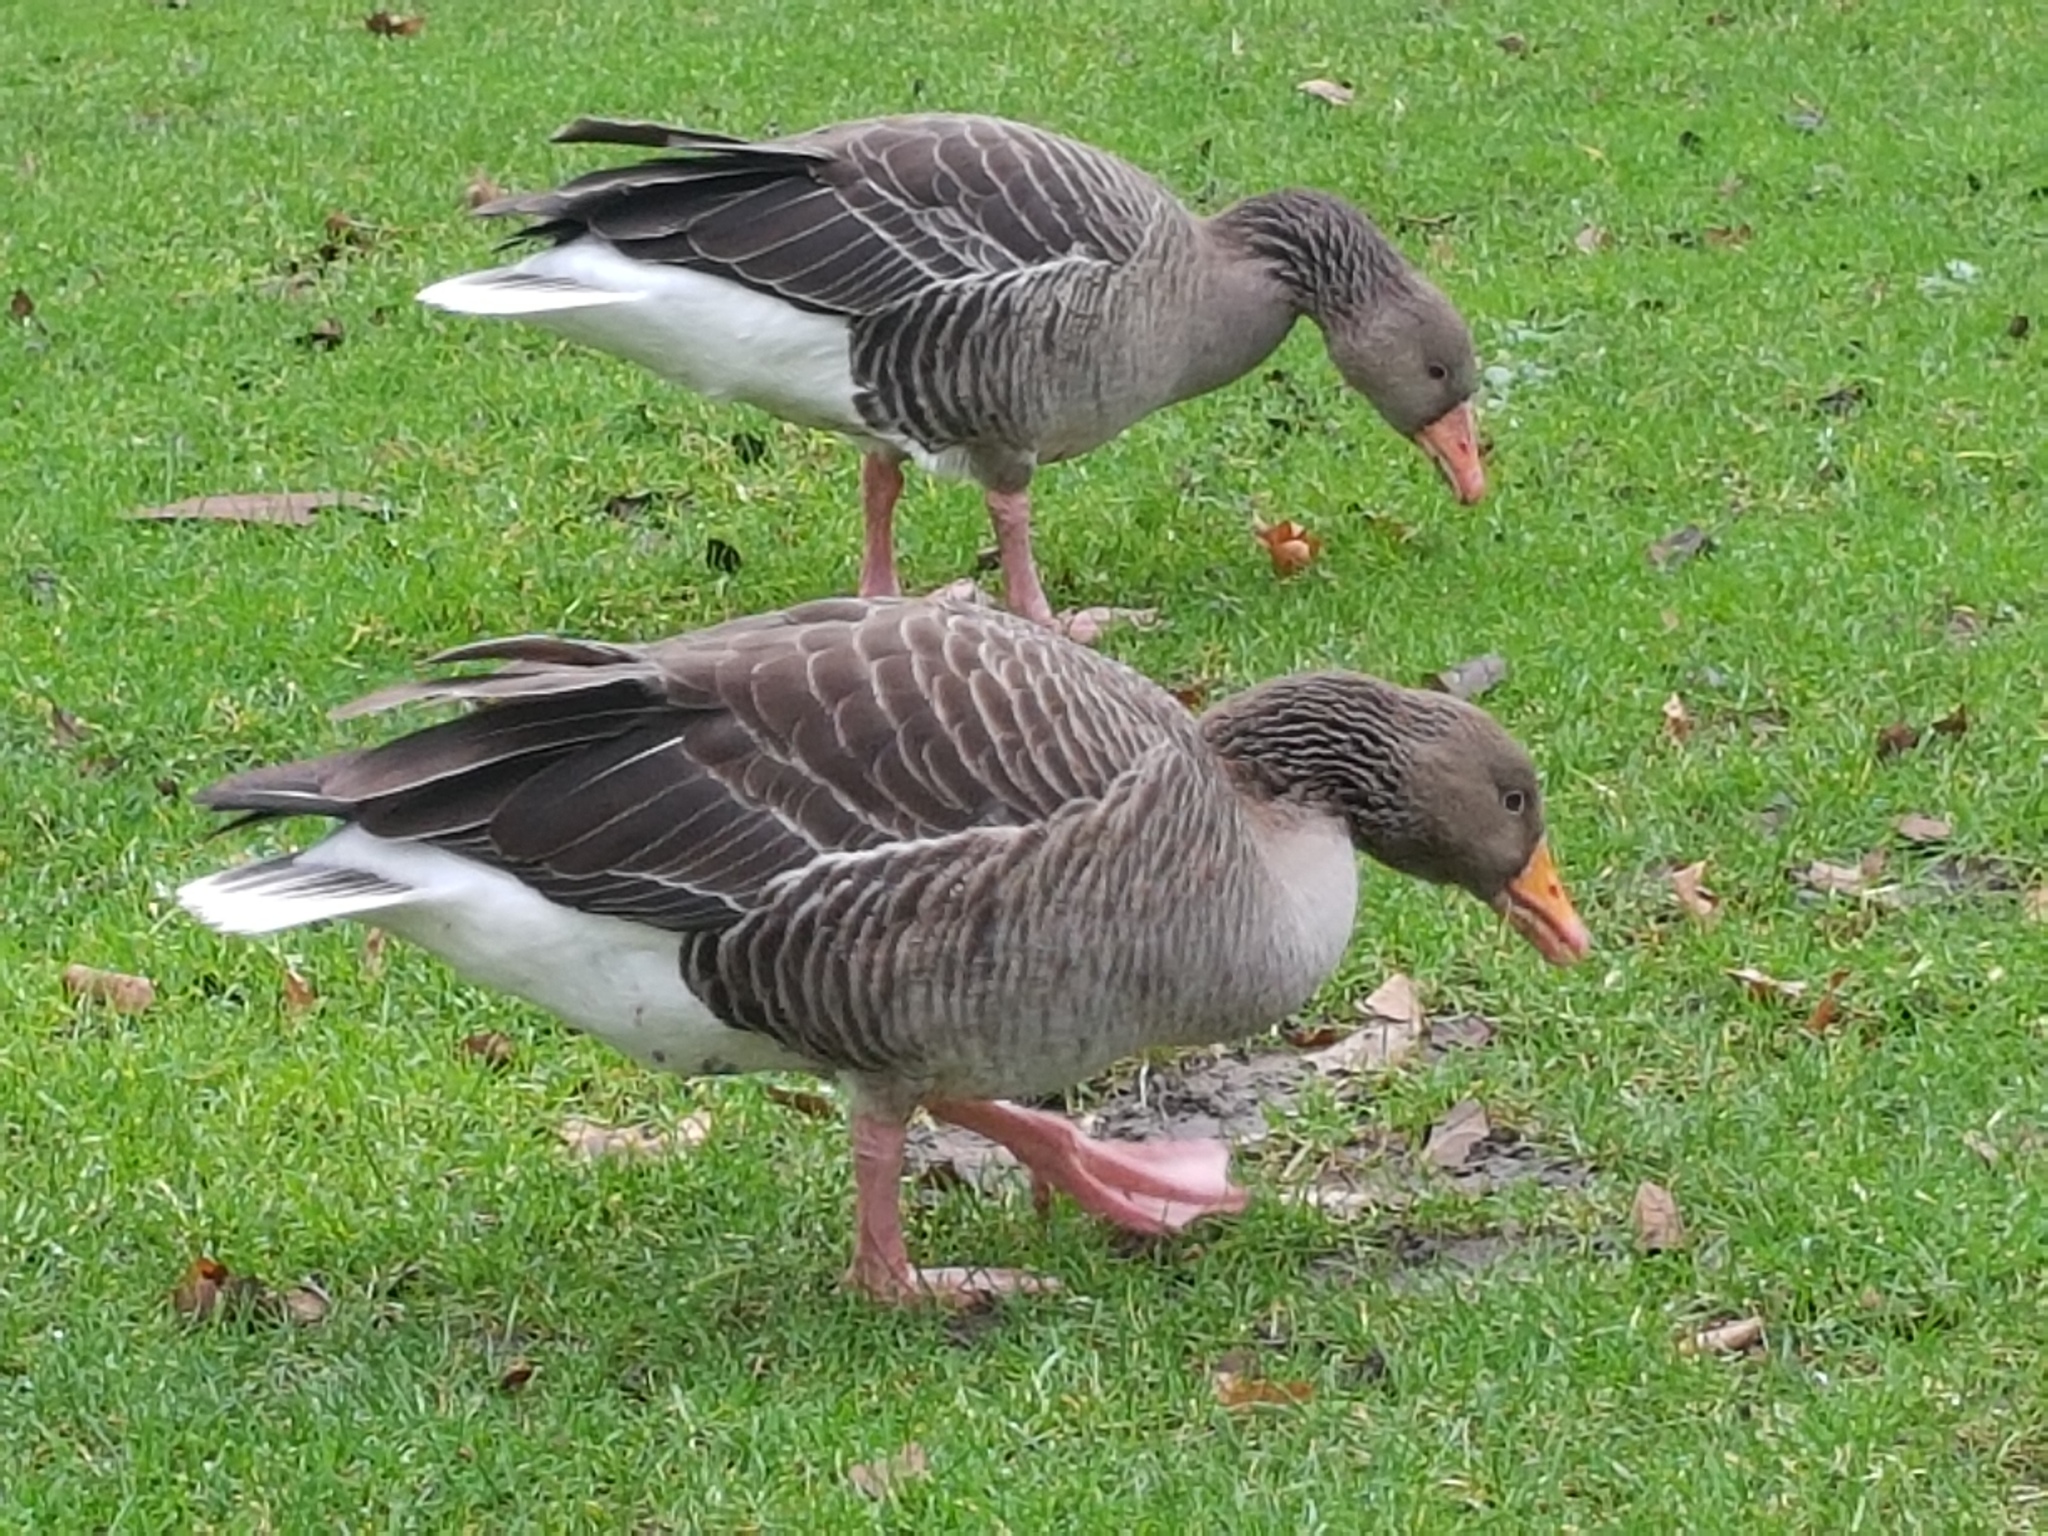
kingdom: Animalia
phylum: Chordata
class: Aves
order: Anseriformes
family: Anatidae
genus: Anser
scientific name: Anser anser
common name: Greylag goose
